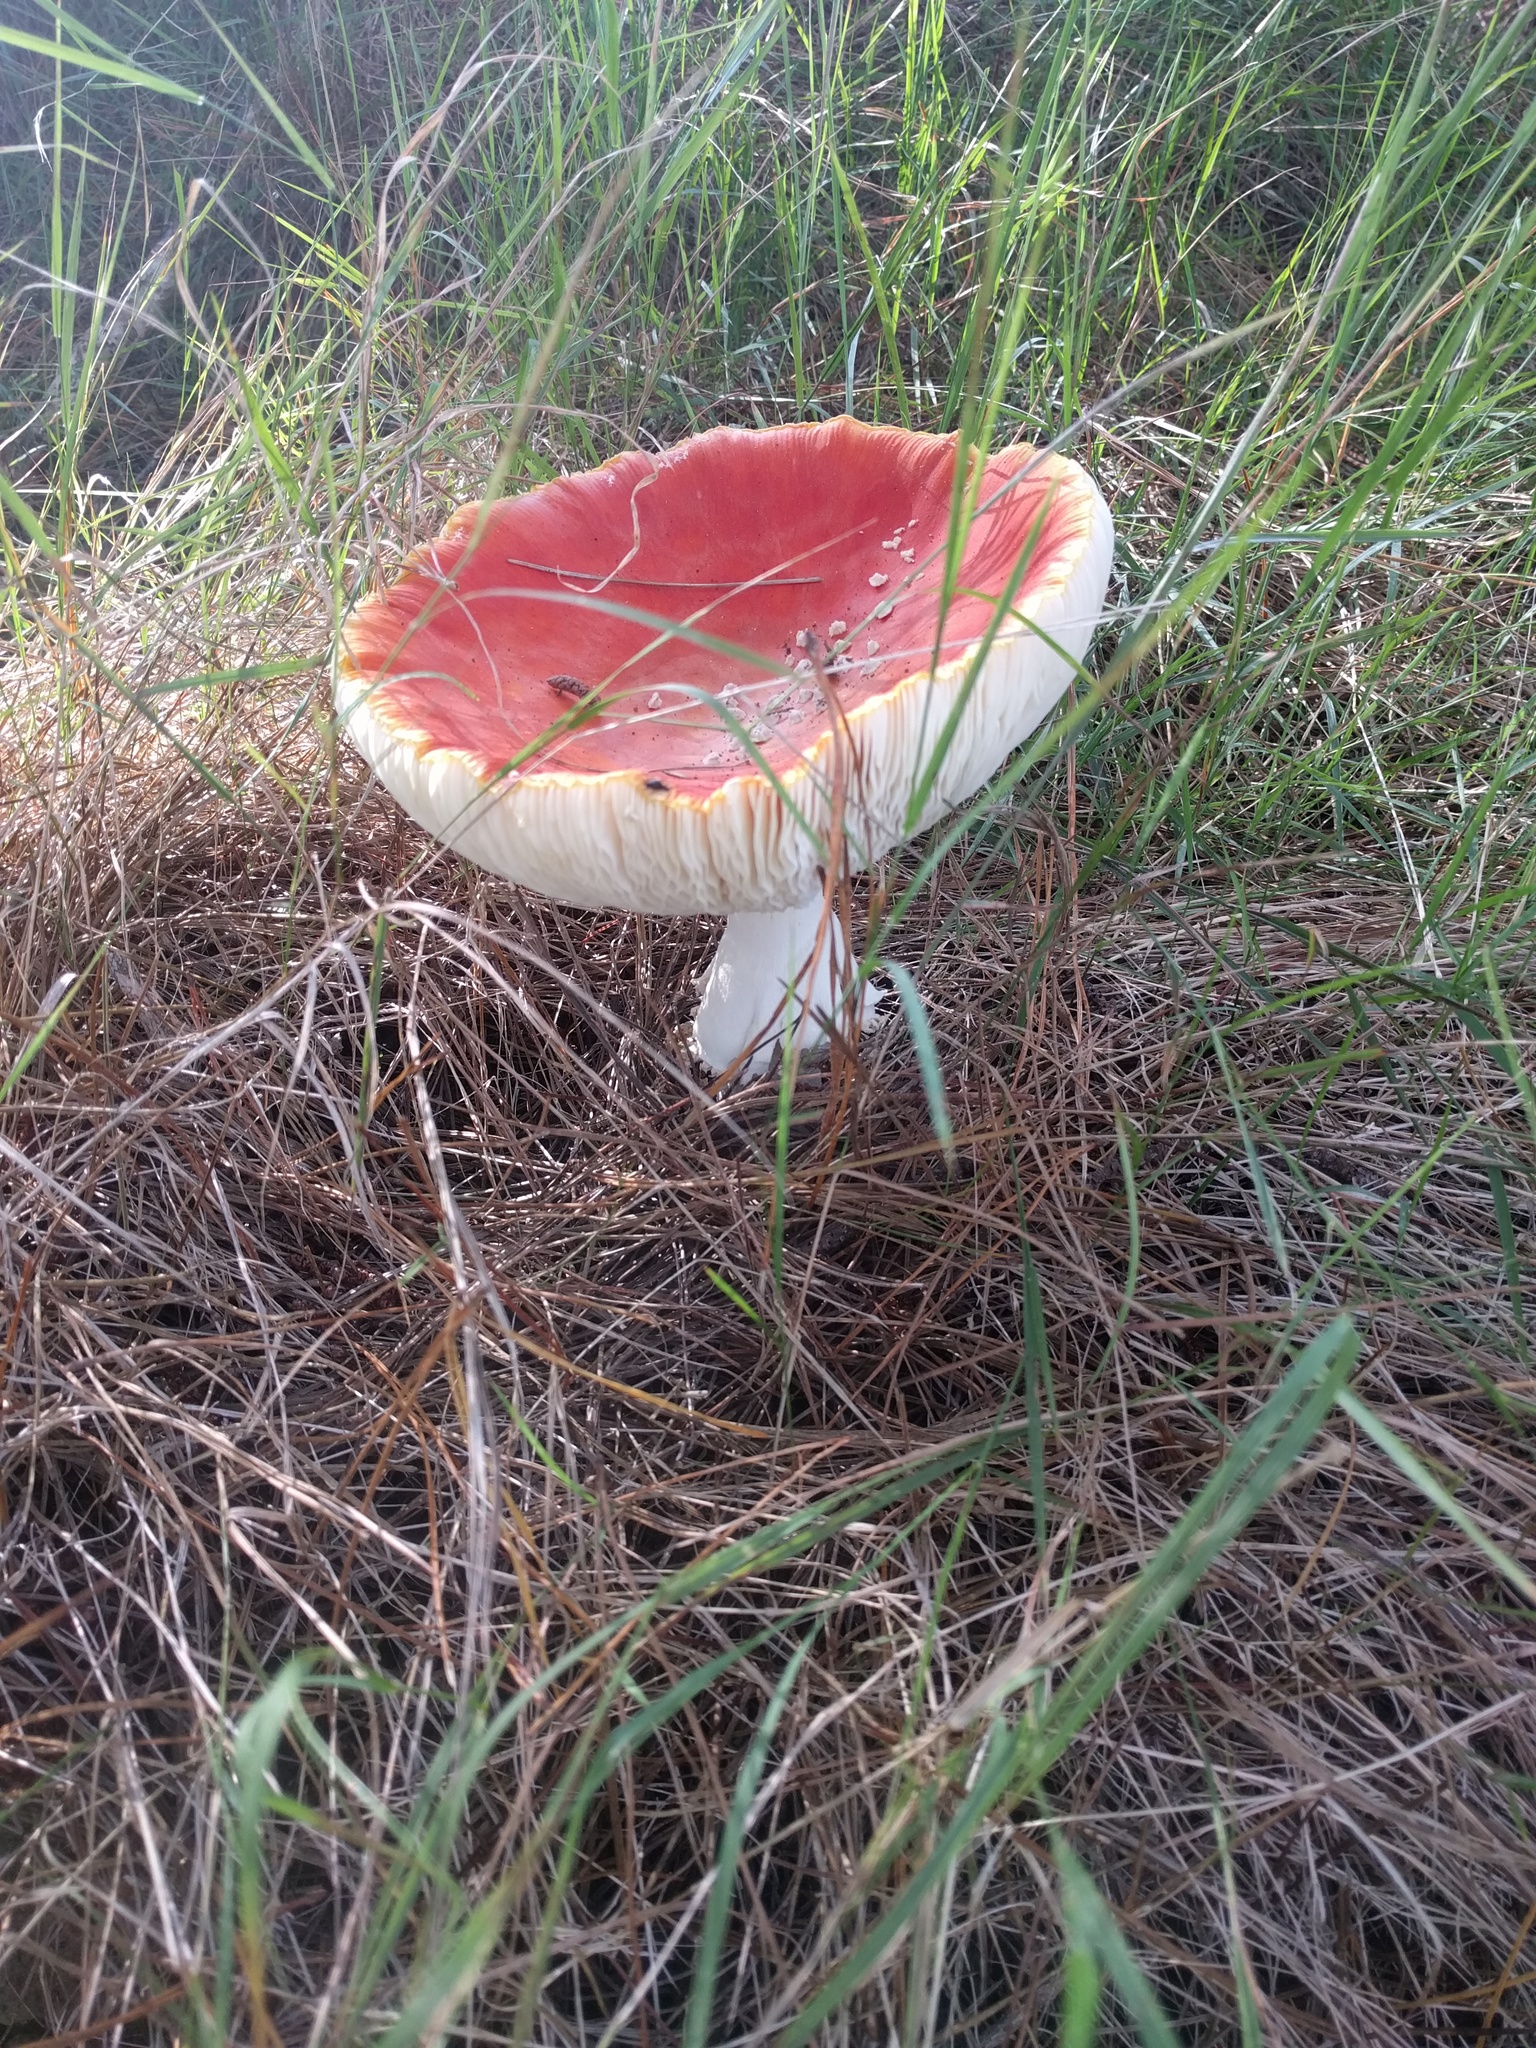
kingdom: Fungi
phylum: Basidiomycota
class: Agaricomycetes
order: Agaricales
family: Amanitaceae
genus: Amanita
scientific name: Amanita muscaria
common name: Fly agaric
